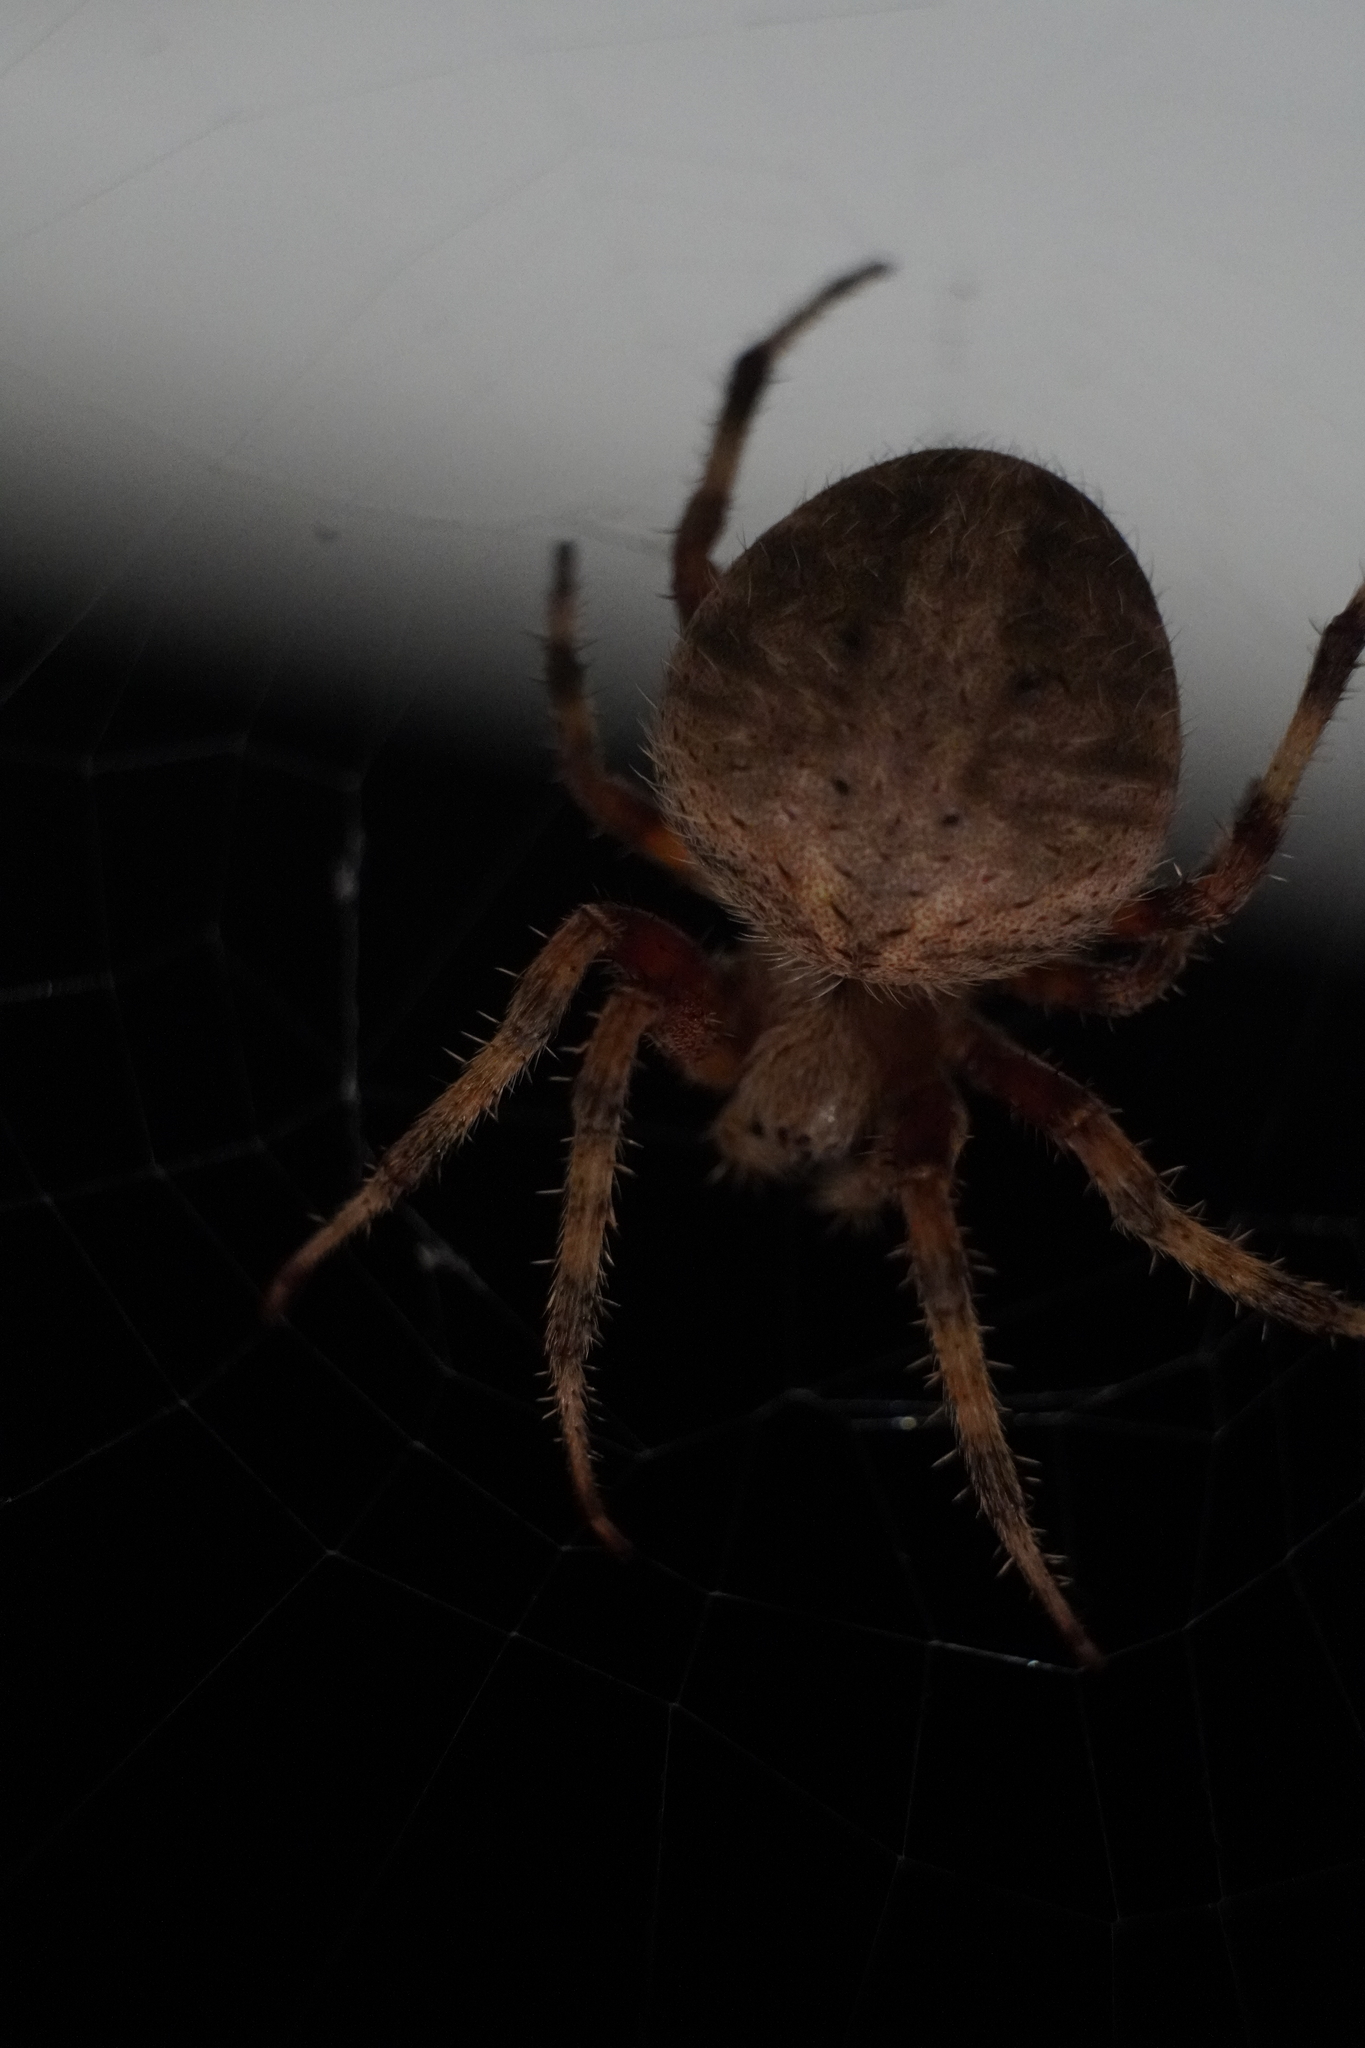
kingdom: Animalia
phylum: Arthropoda
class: Arachnida
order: Araneae
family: Araneidae
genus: Neoscona
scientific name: Neoscona crucifera
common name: Spotted orbweaver
